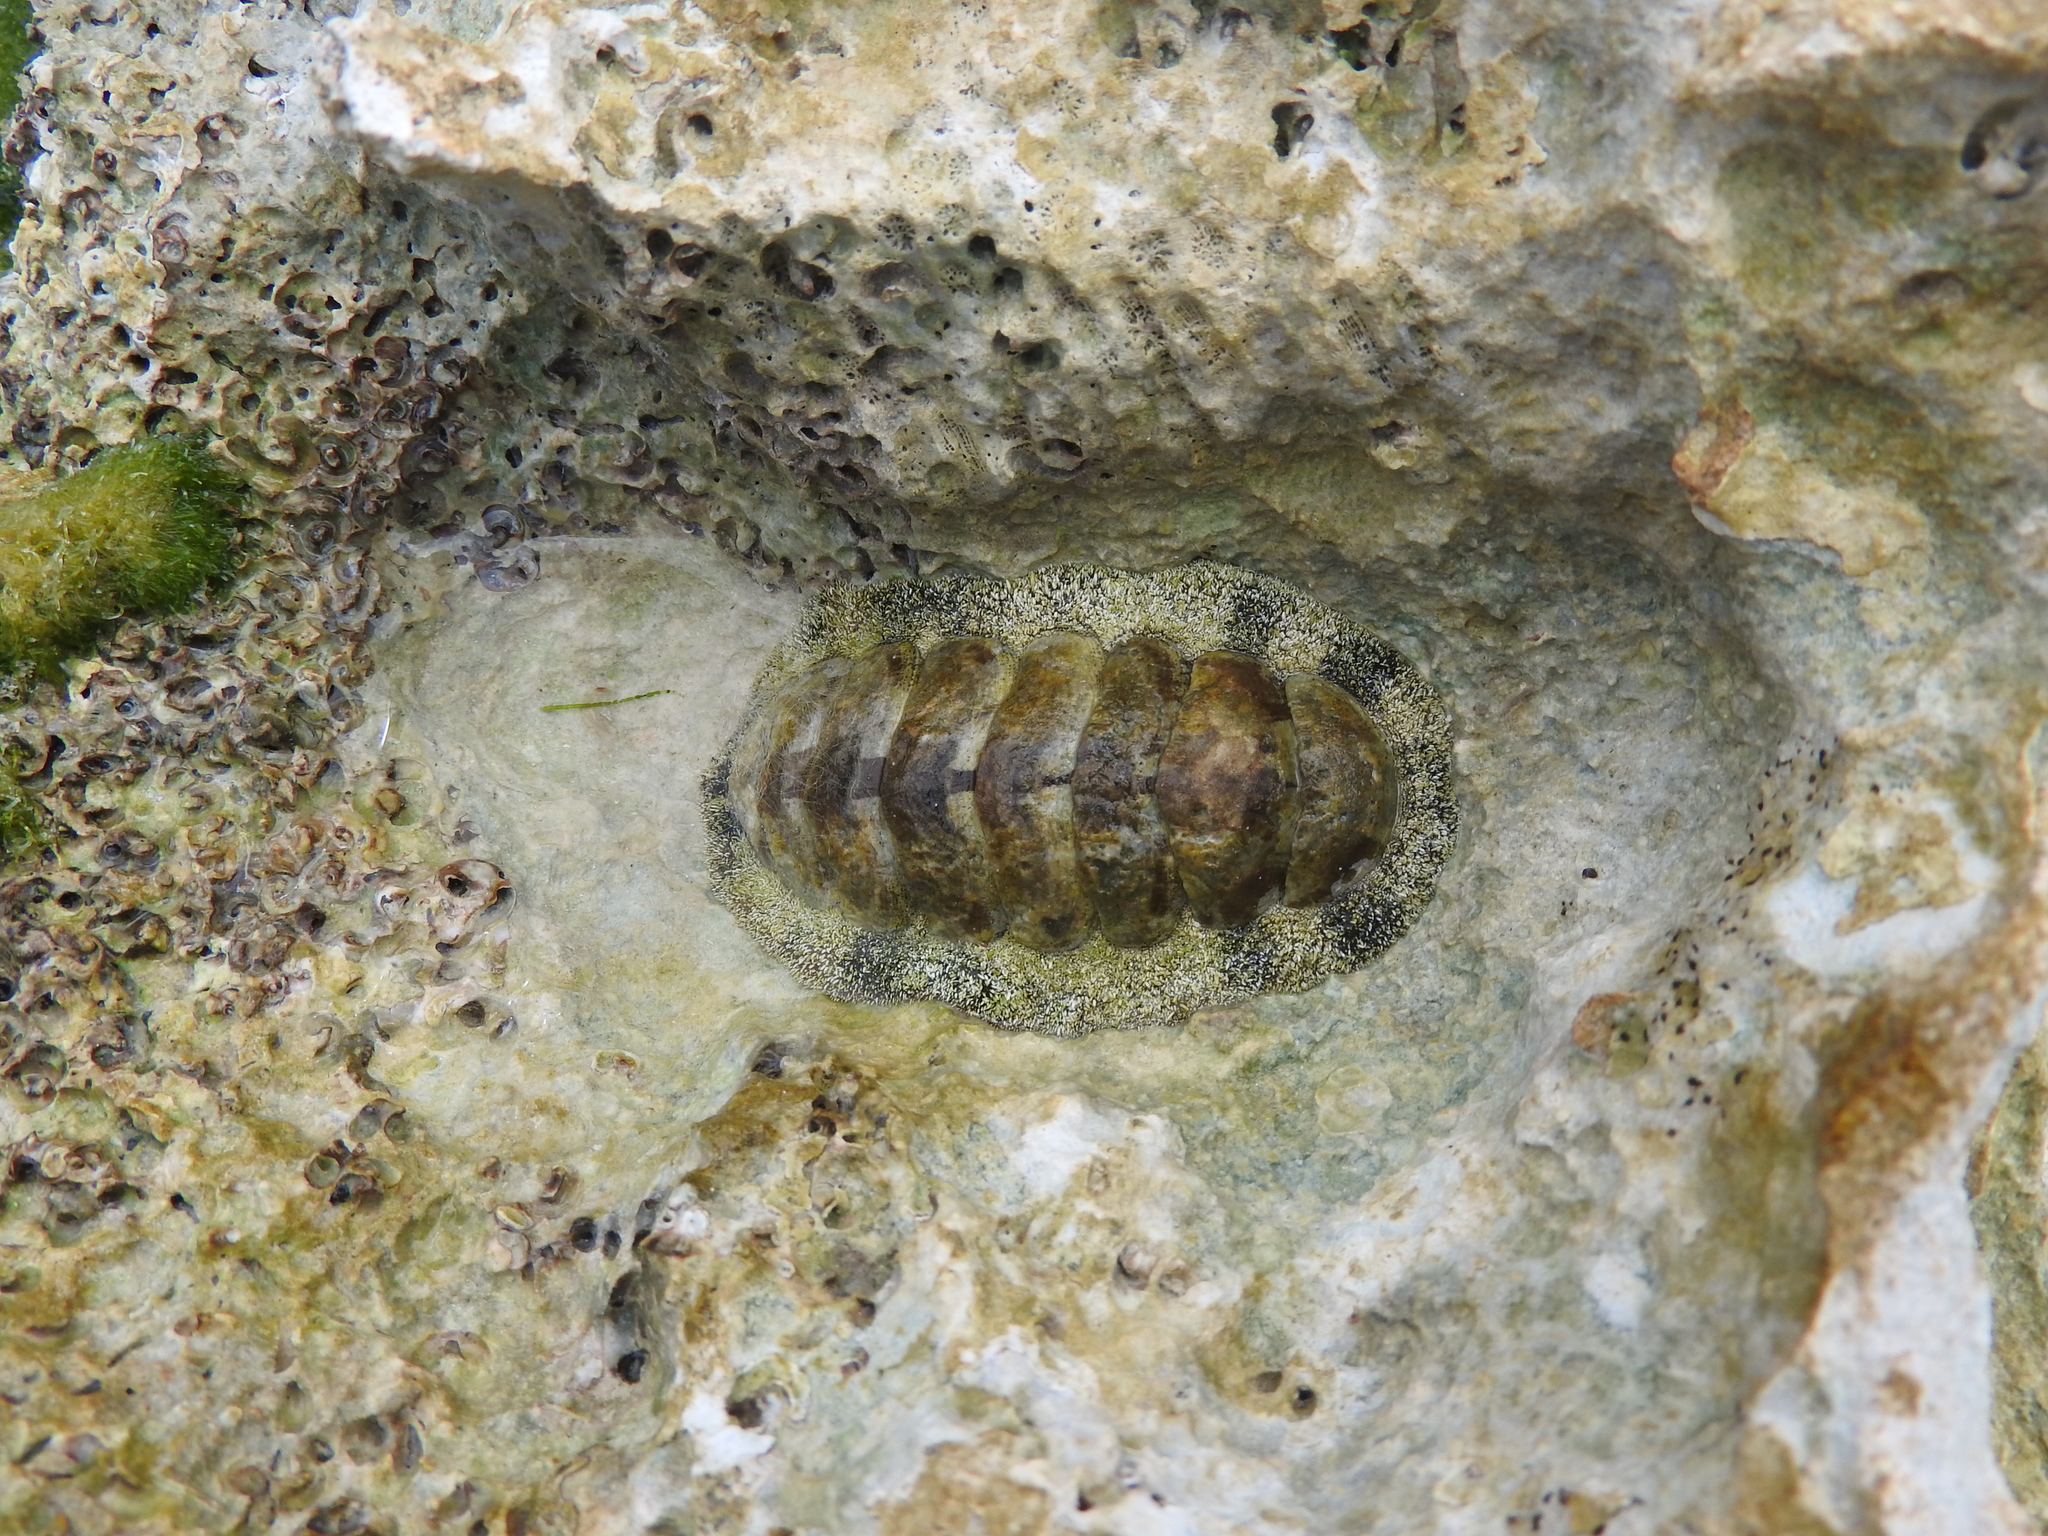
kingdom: Animalia
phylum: Mollusca
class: Polyplacophora
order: Chitonida
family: Chitonidae
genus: Acanthopleura
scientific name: Acanthopleura granulata
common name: West indian fuzzy chiton
